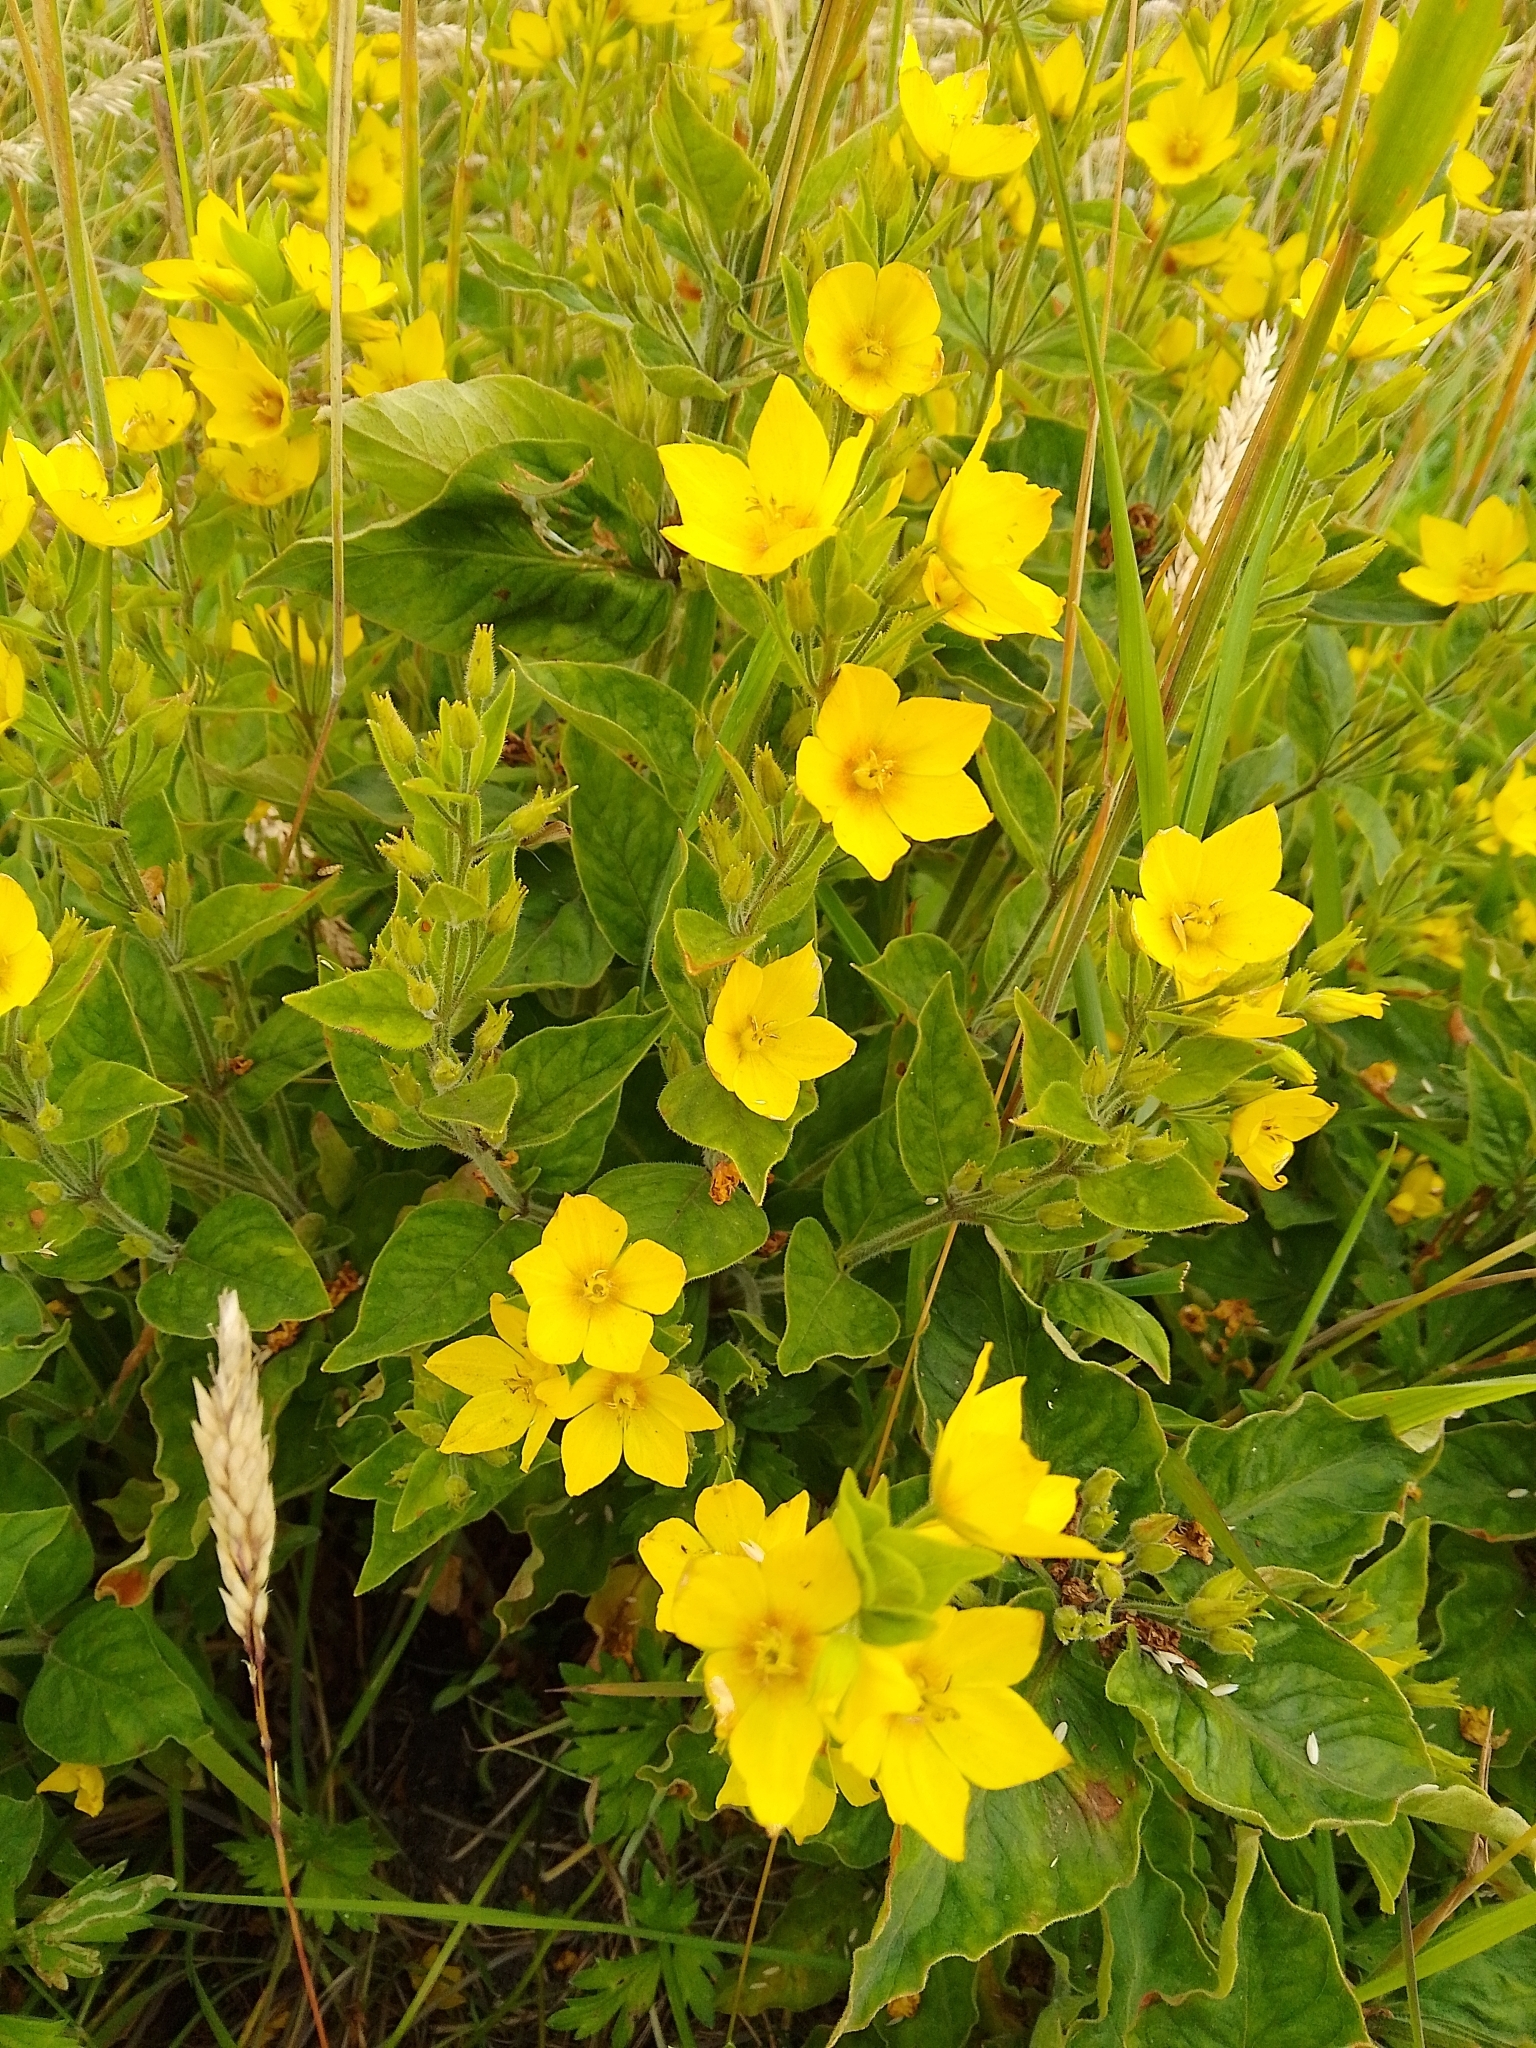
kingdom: Plantae
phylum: Tracheophyta
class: Magnoliopsida
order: Ericales
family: Primulaceae
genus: Lysimachia
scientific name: Lysimachia punctata
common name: Dotted loosestrife
